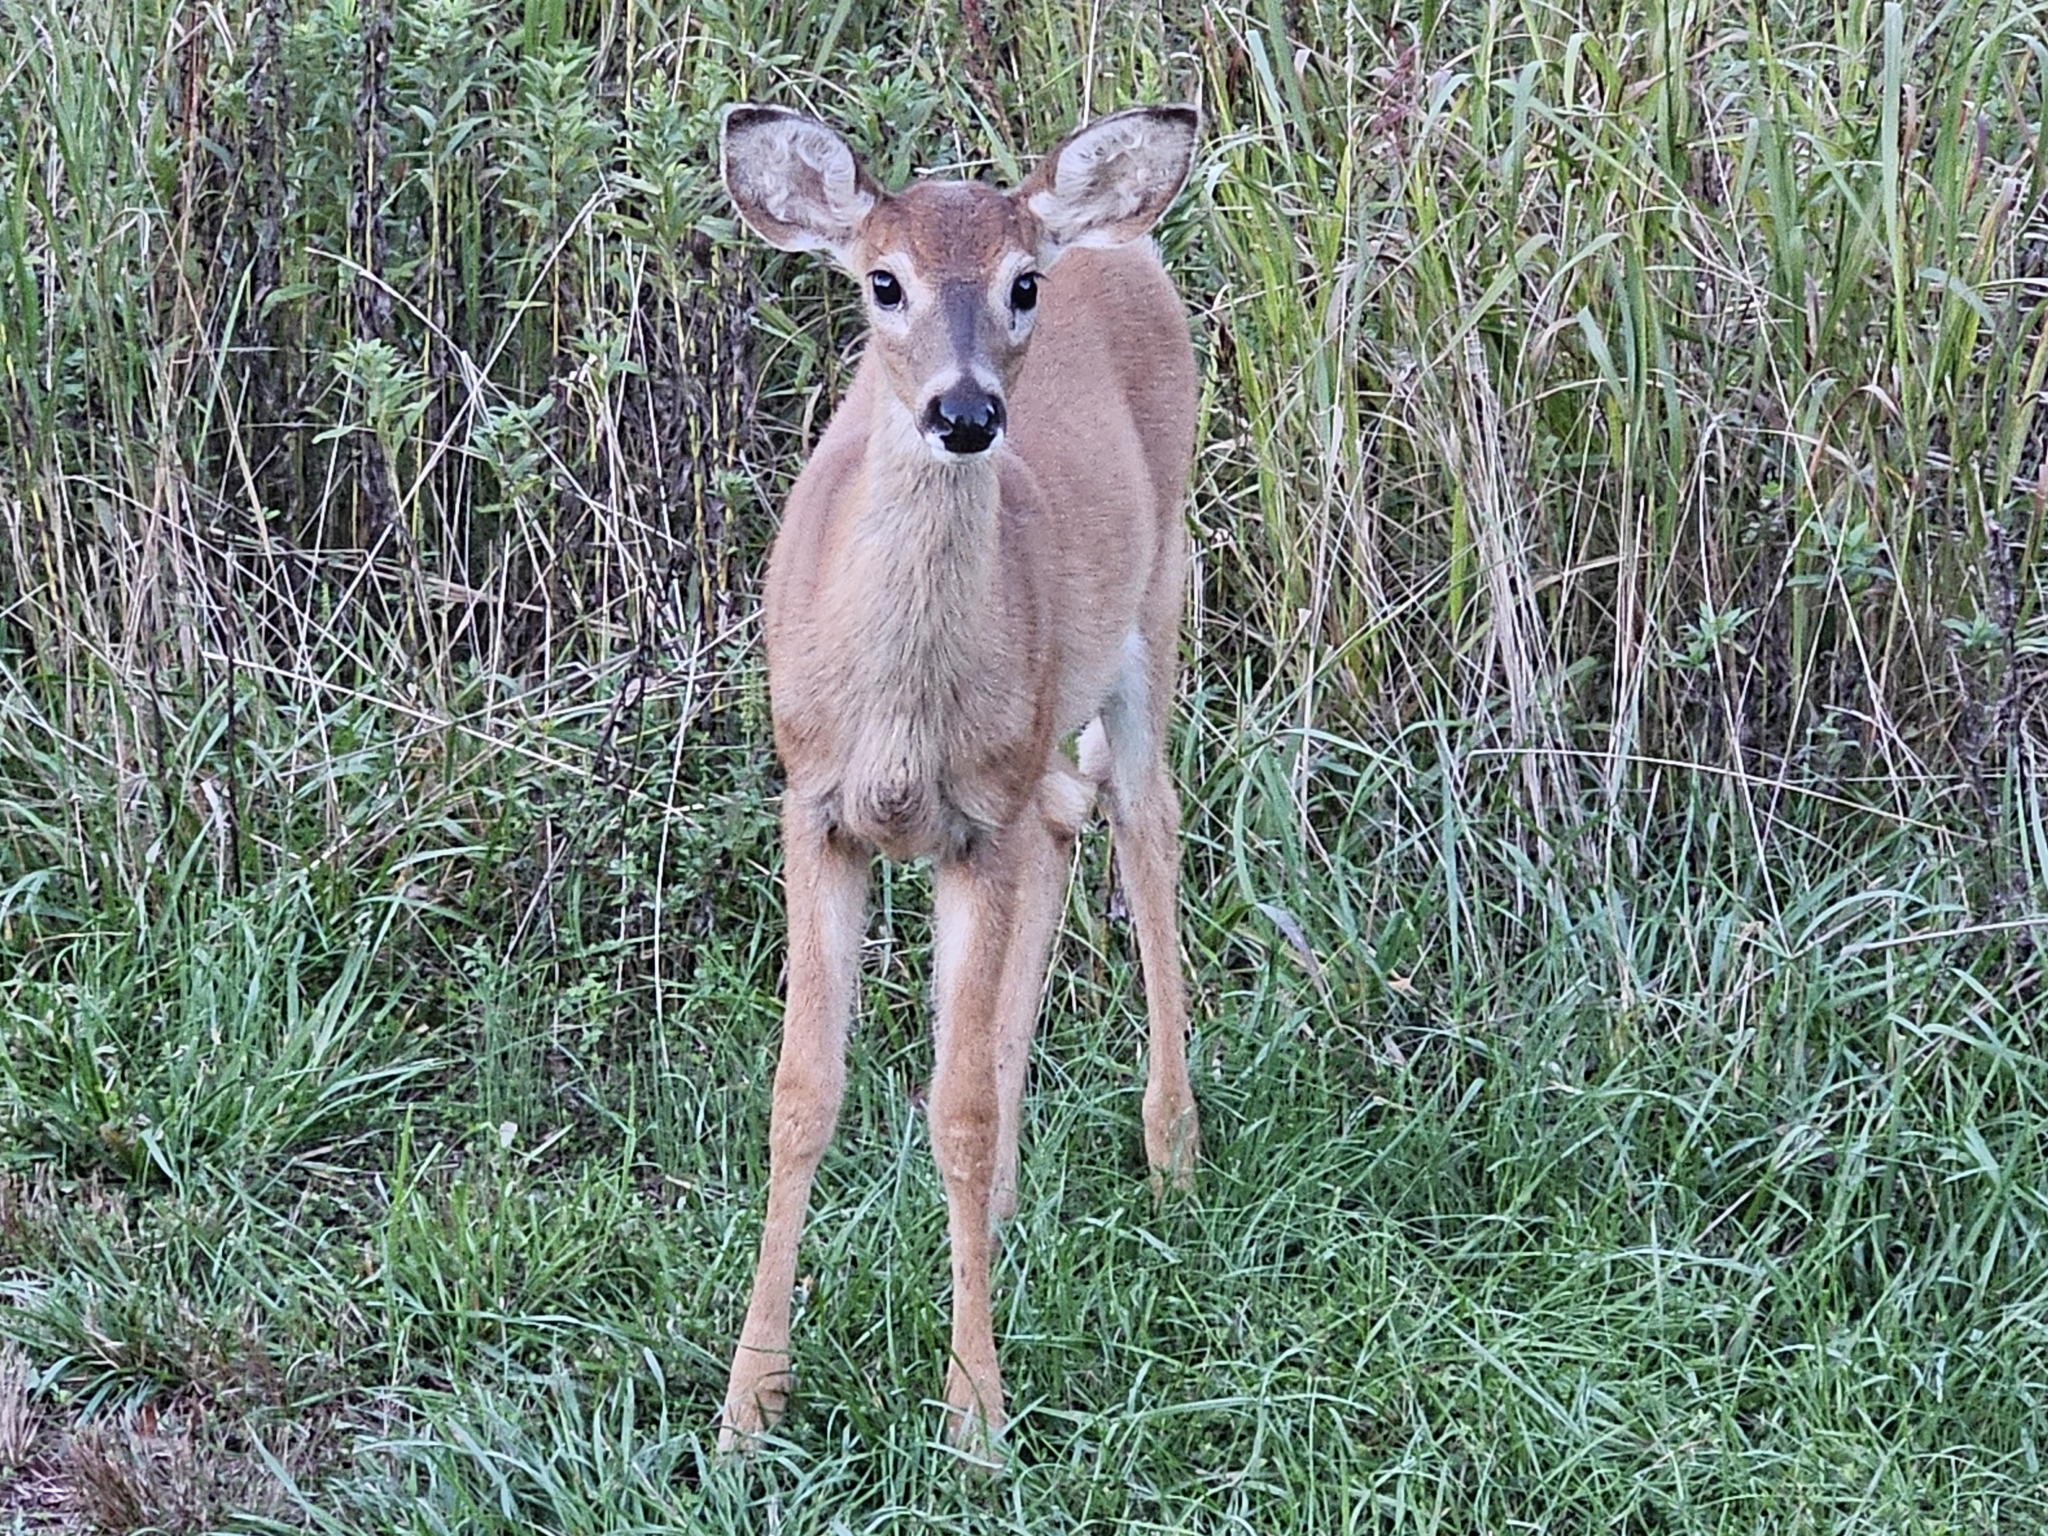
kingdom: Animalia
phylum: Chordata
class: Mammalia
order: Artiodactyla
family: Cervidae
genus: Odocoileus
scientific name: Odocoileus virginianus
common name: White-tailed deer
